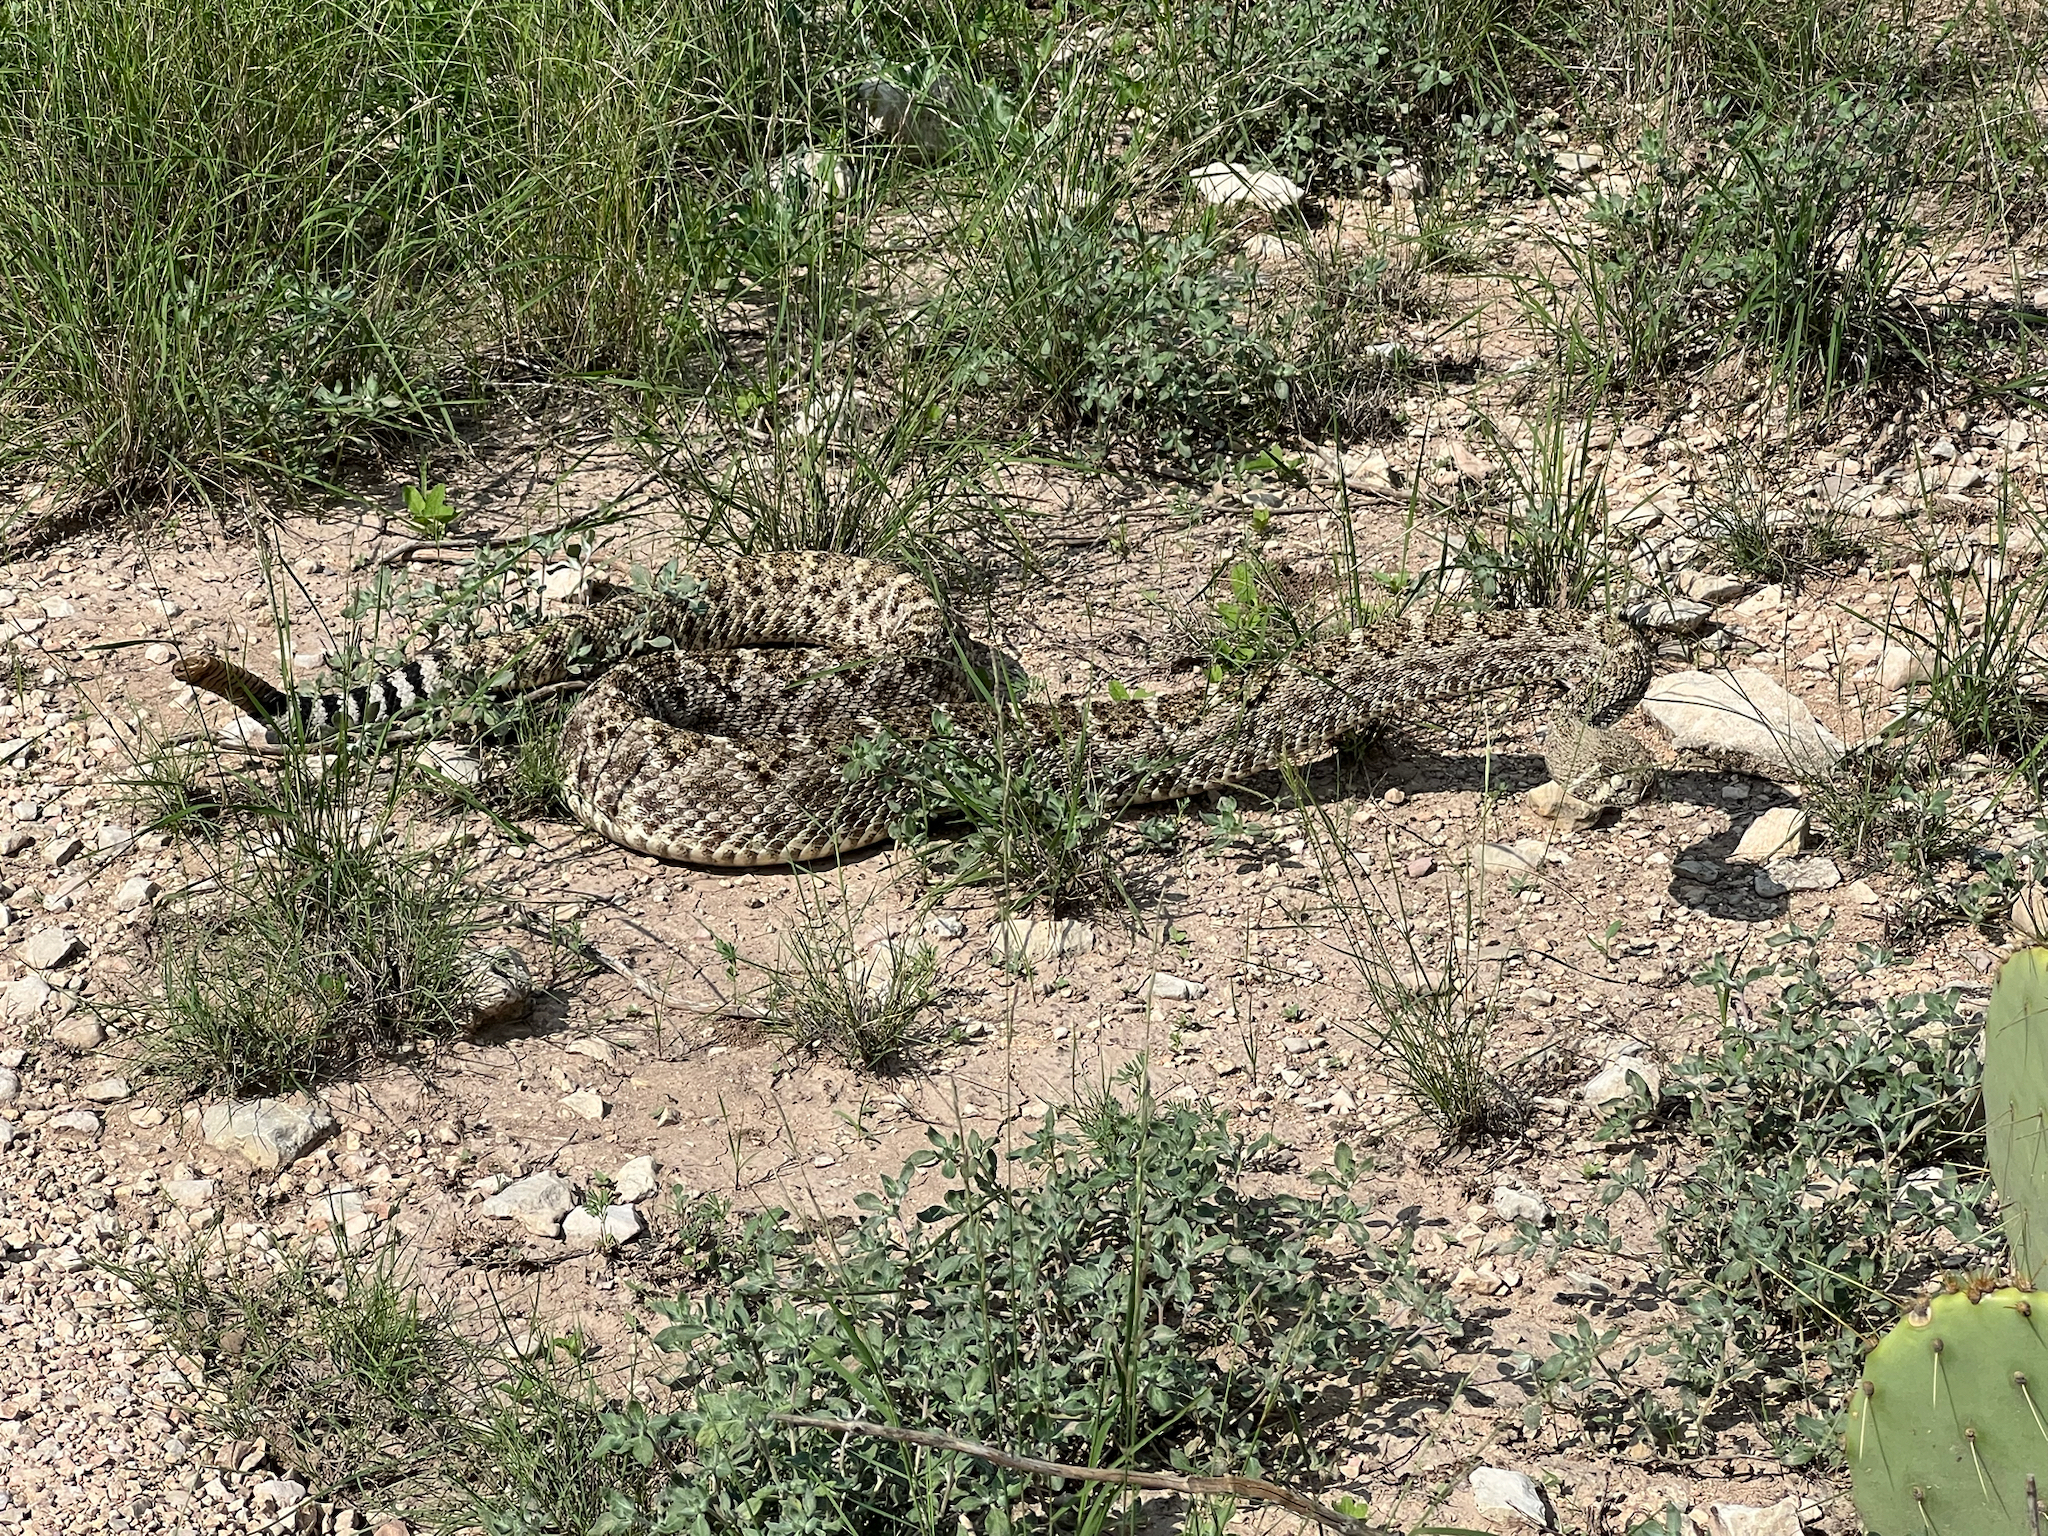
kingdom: Animalia
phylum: Chordata
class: Squamata
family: Viperidae
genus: Crotalus
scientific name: Crotalus atrox
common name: Western diamond-backed rattlesnake
